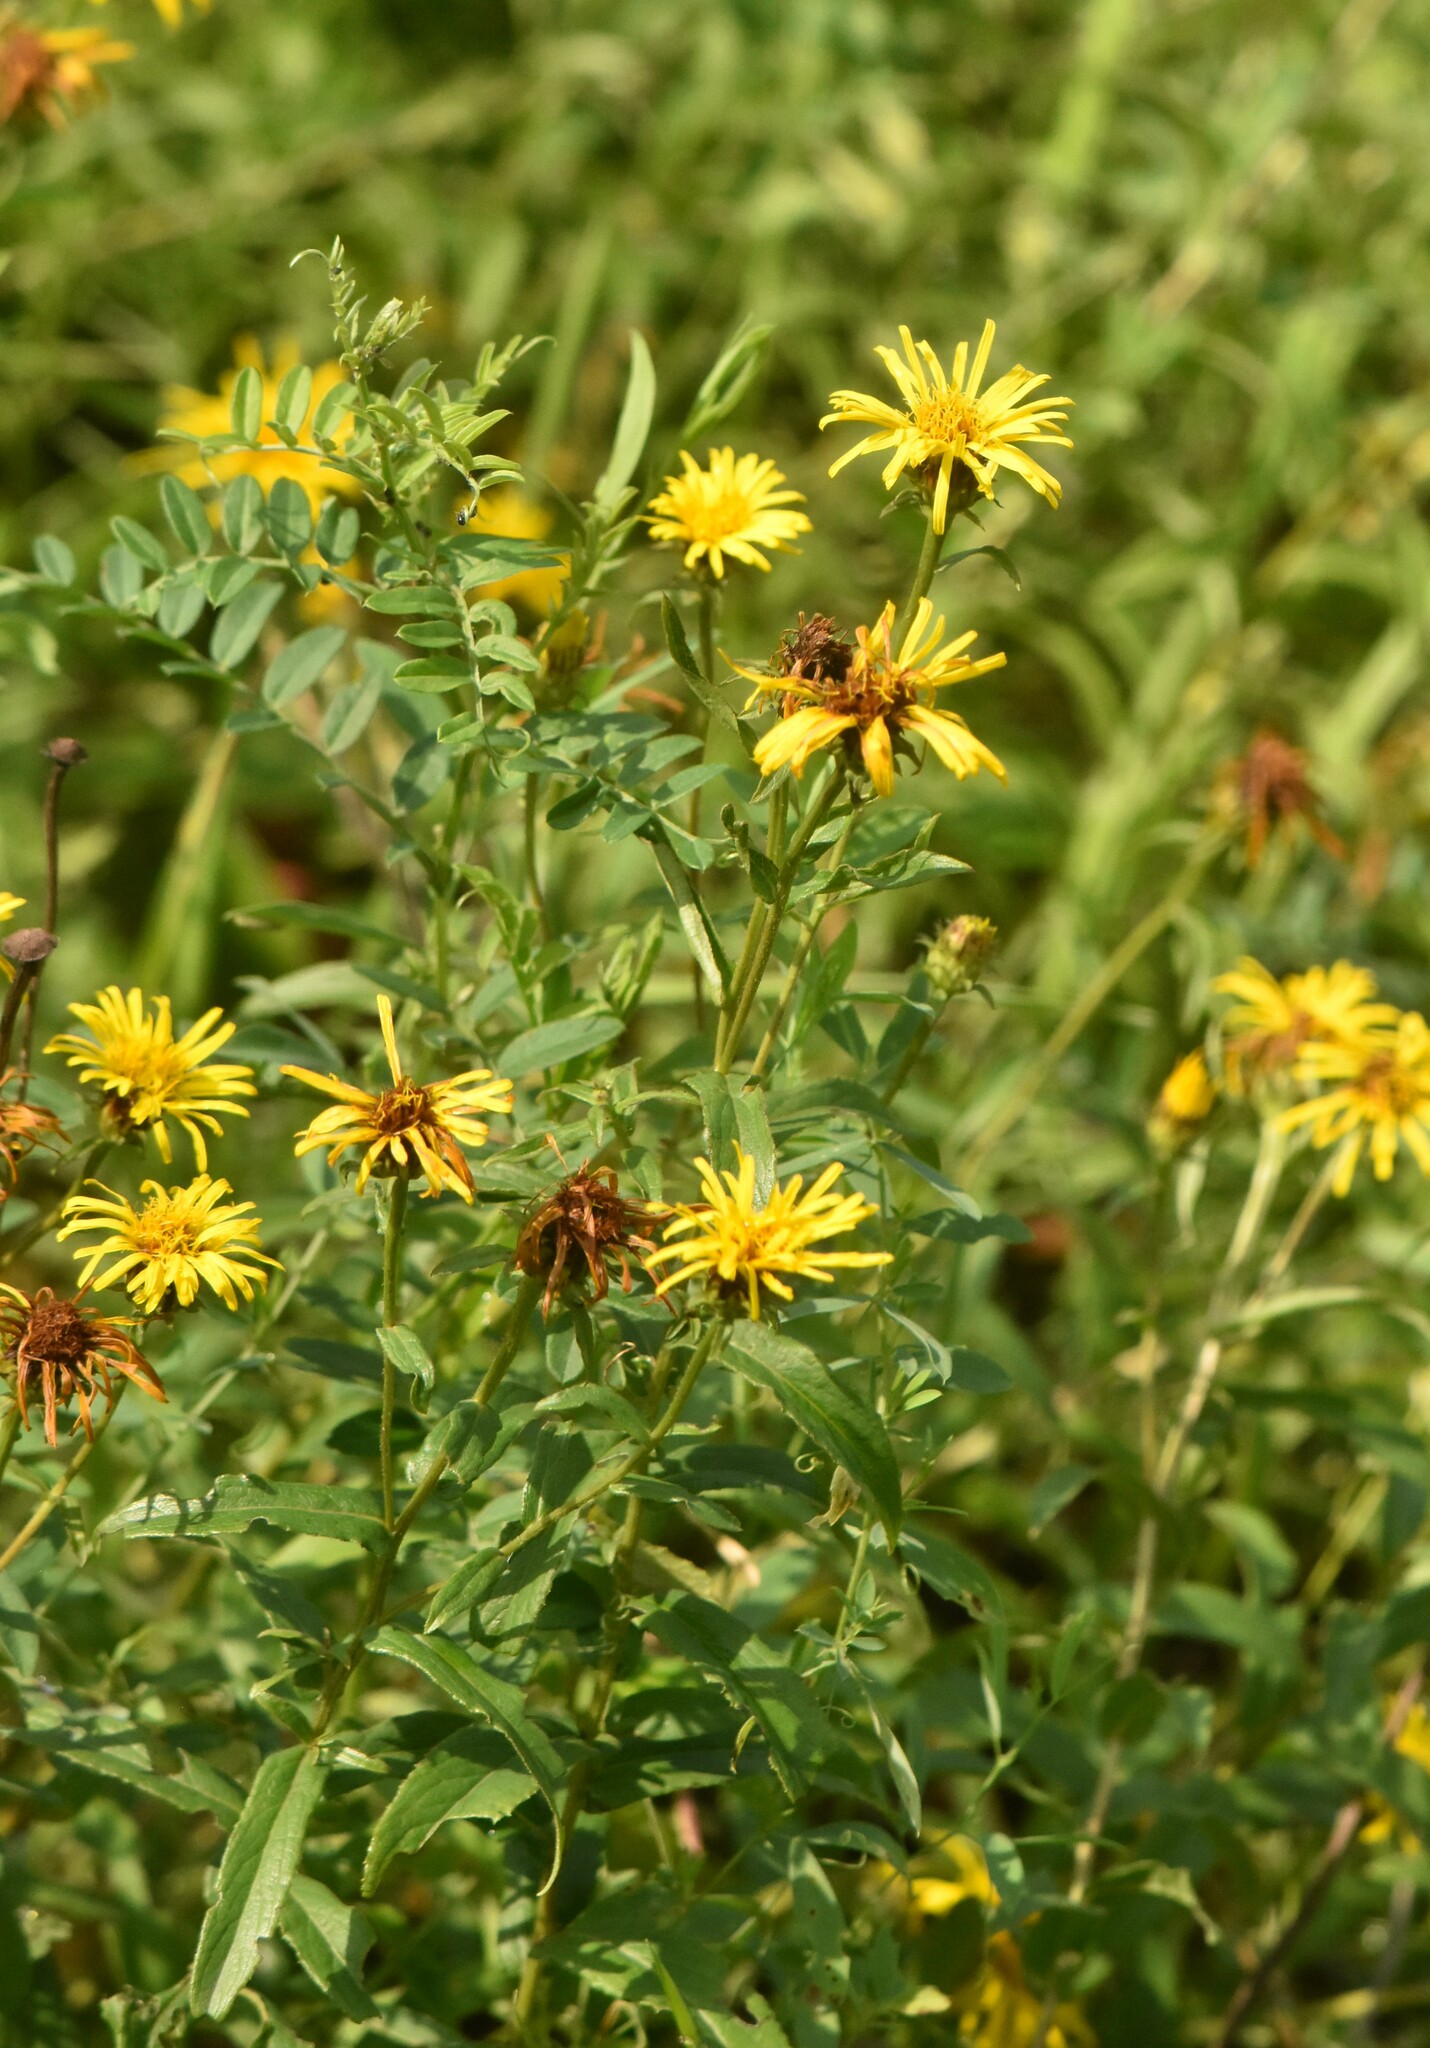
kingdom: Plantae
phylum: Tracheophyta
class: Magnoliopsida
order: Asterales
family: Asteraceae
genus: Pentanema
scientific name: Pentanema salicinum
